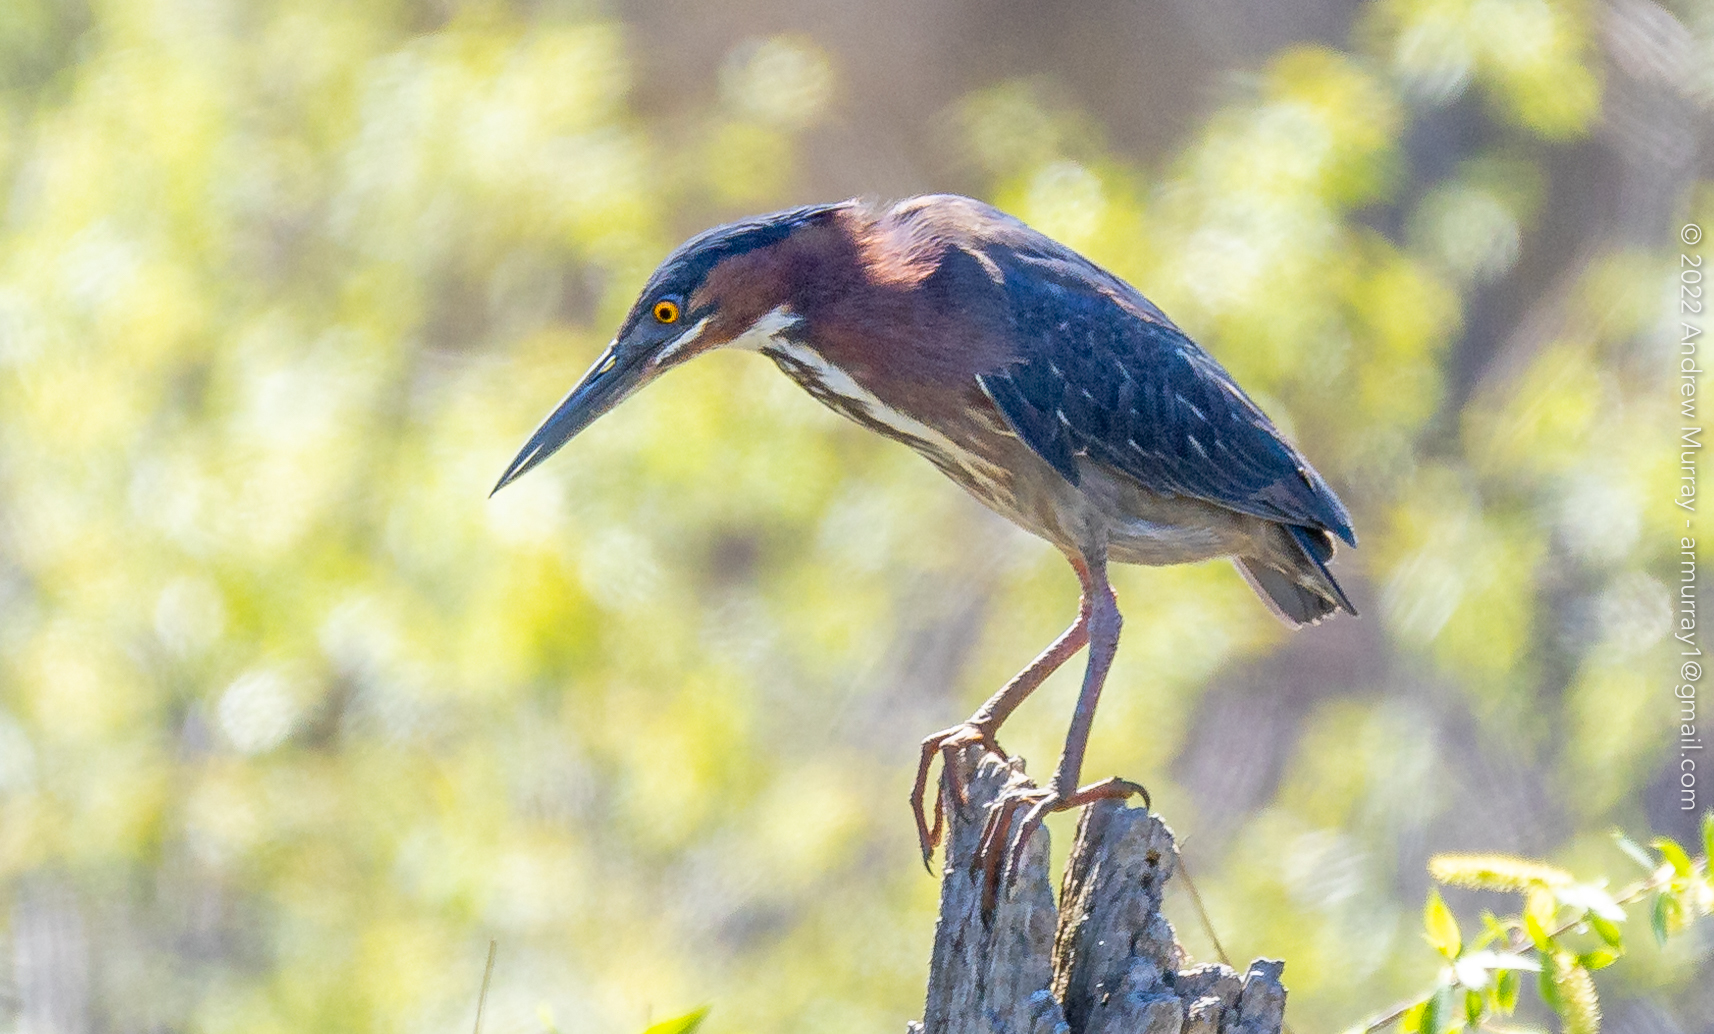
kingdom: Animalia
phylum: Chordata
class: Aves
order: Pelecaniformes
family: Ardeidae
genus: Butorides
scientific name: Butorides virescens
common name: Green heron
